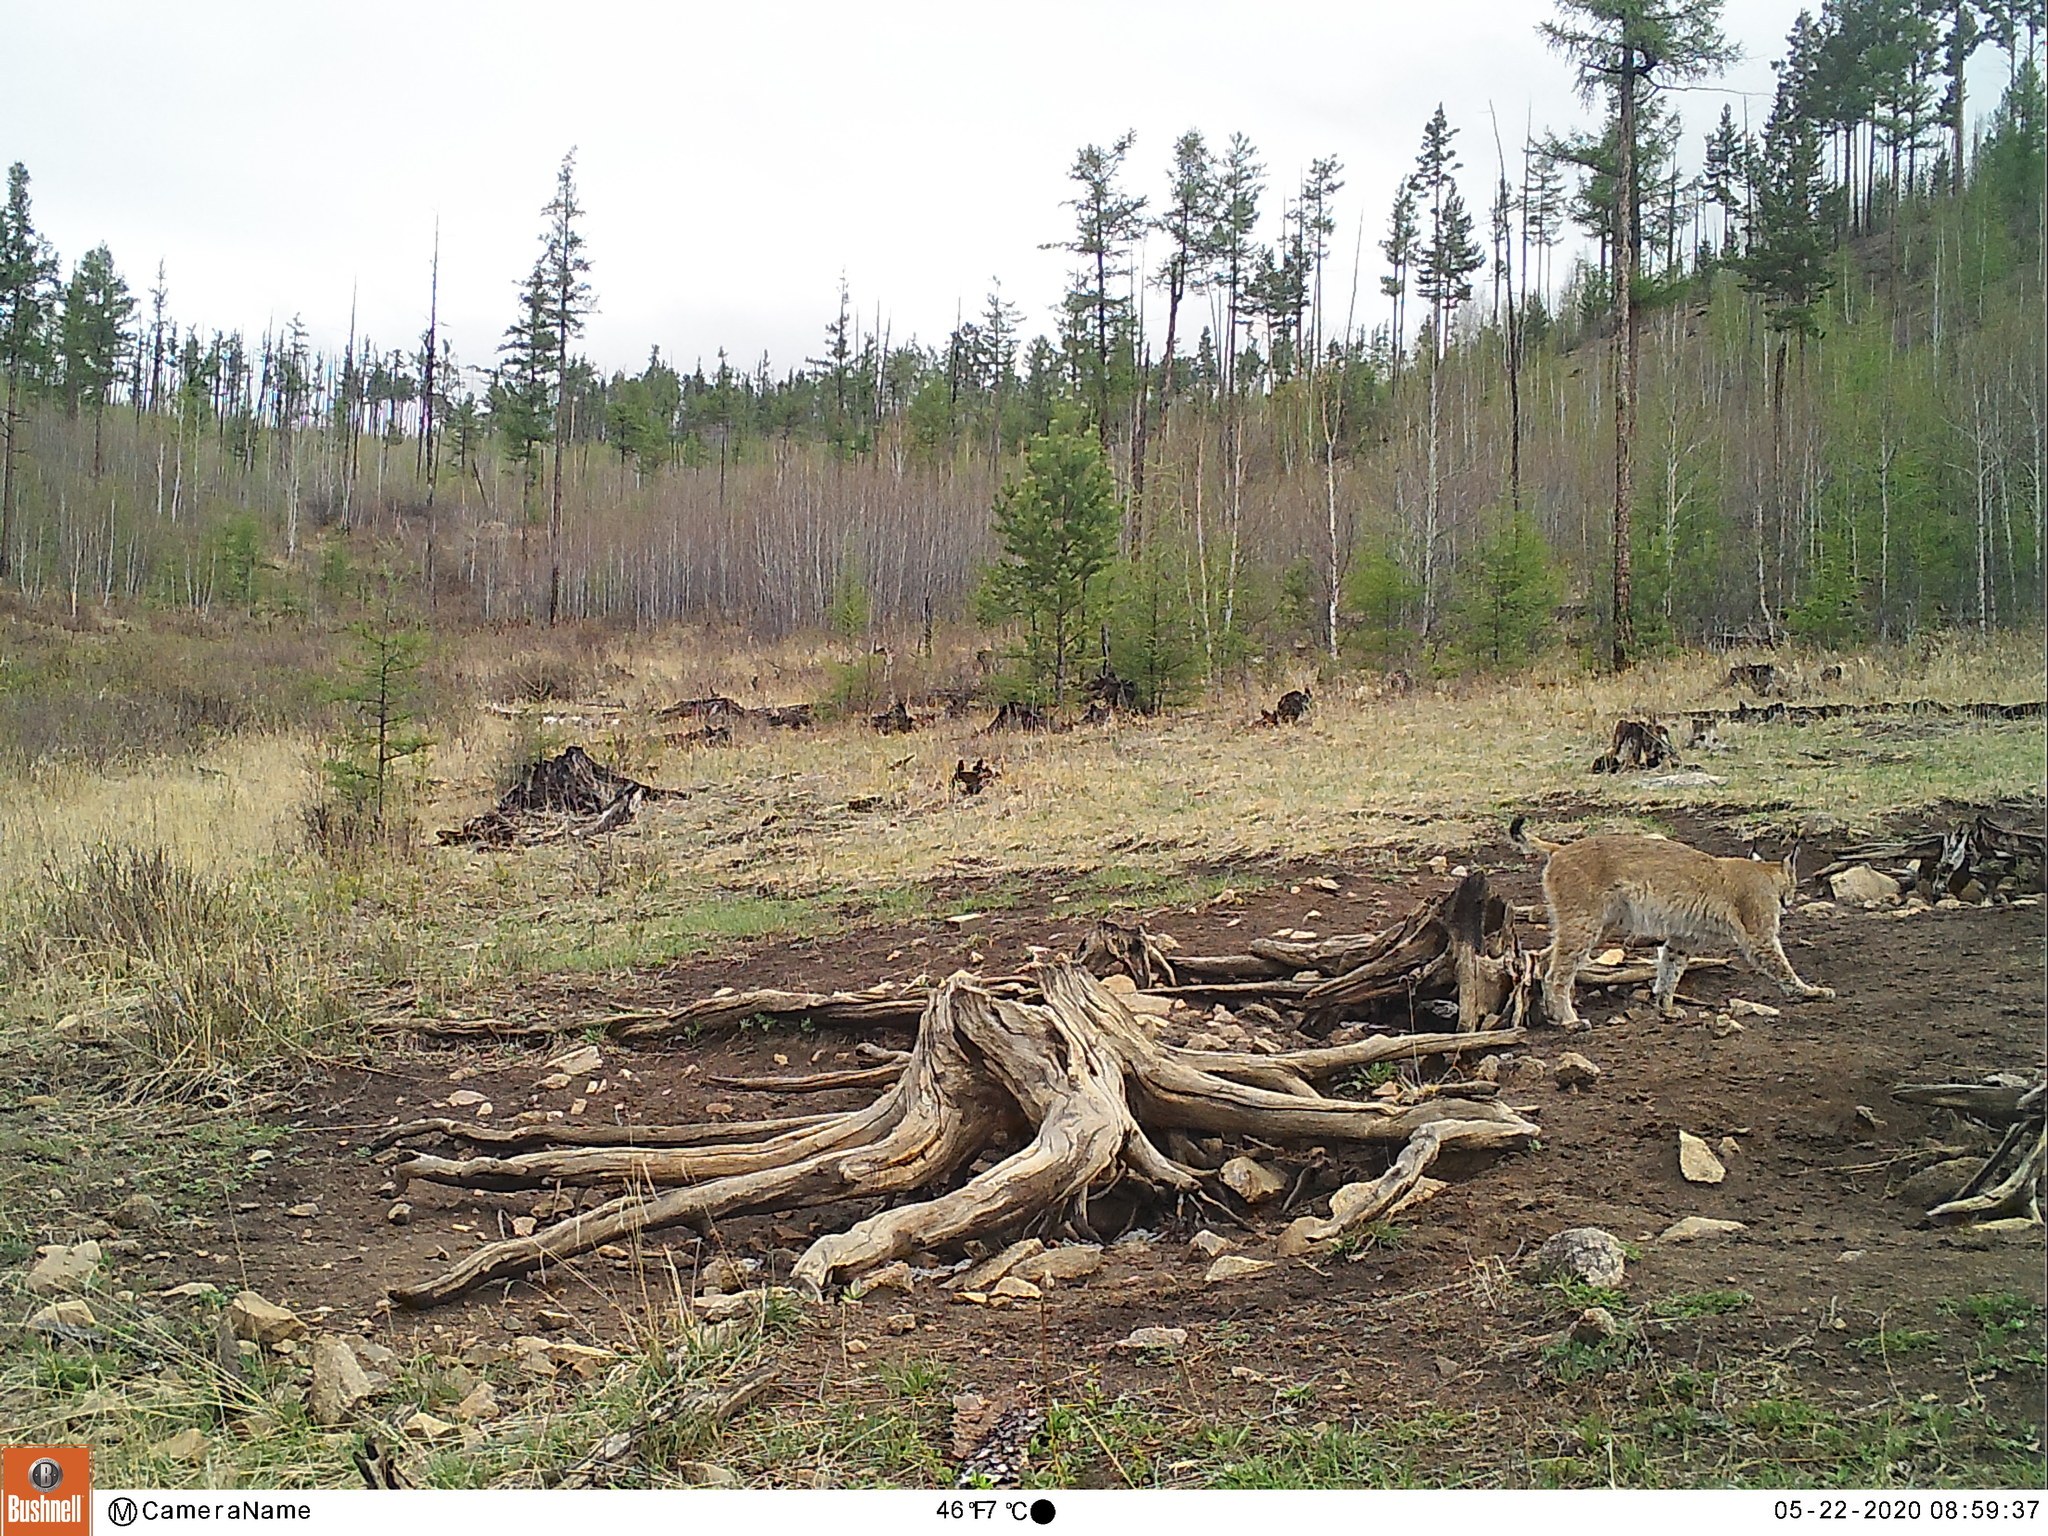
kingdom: Animalia
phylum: Chordata
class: Mammalia
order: Carnivora
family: Felidae
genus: Lynx
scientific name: Lynx lynx
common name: Eurasian lynx
